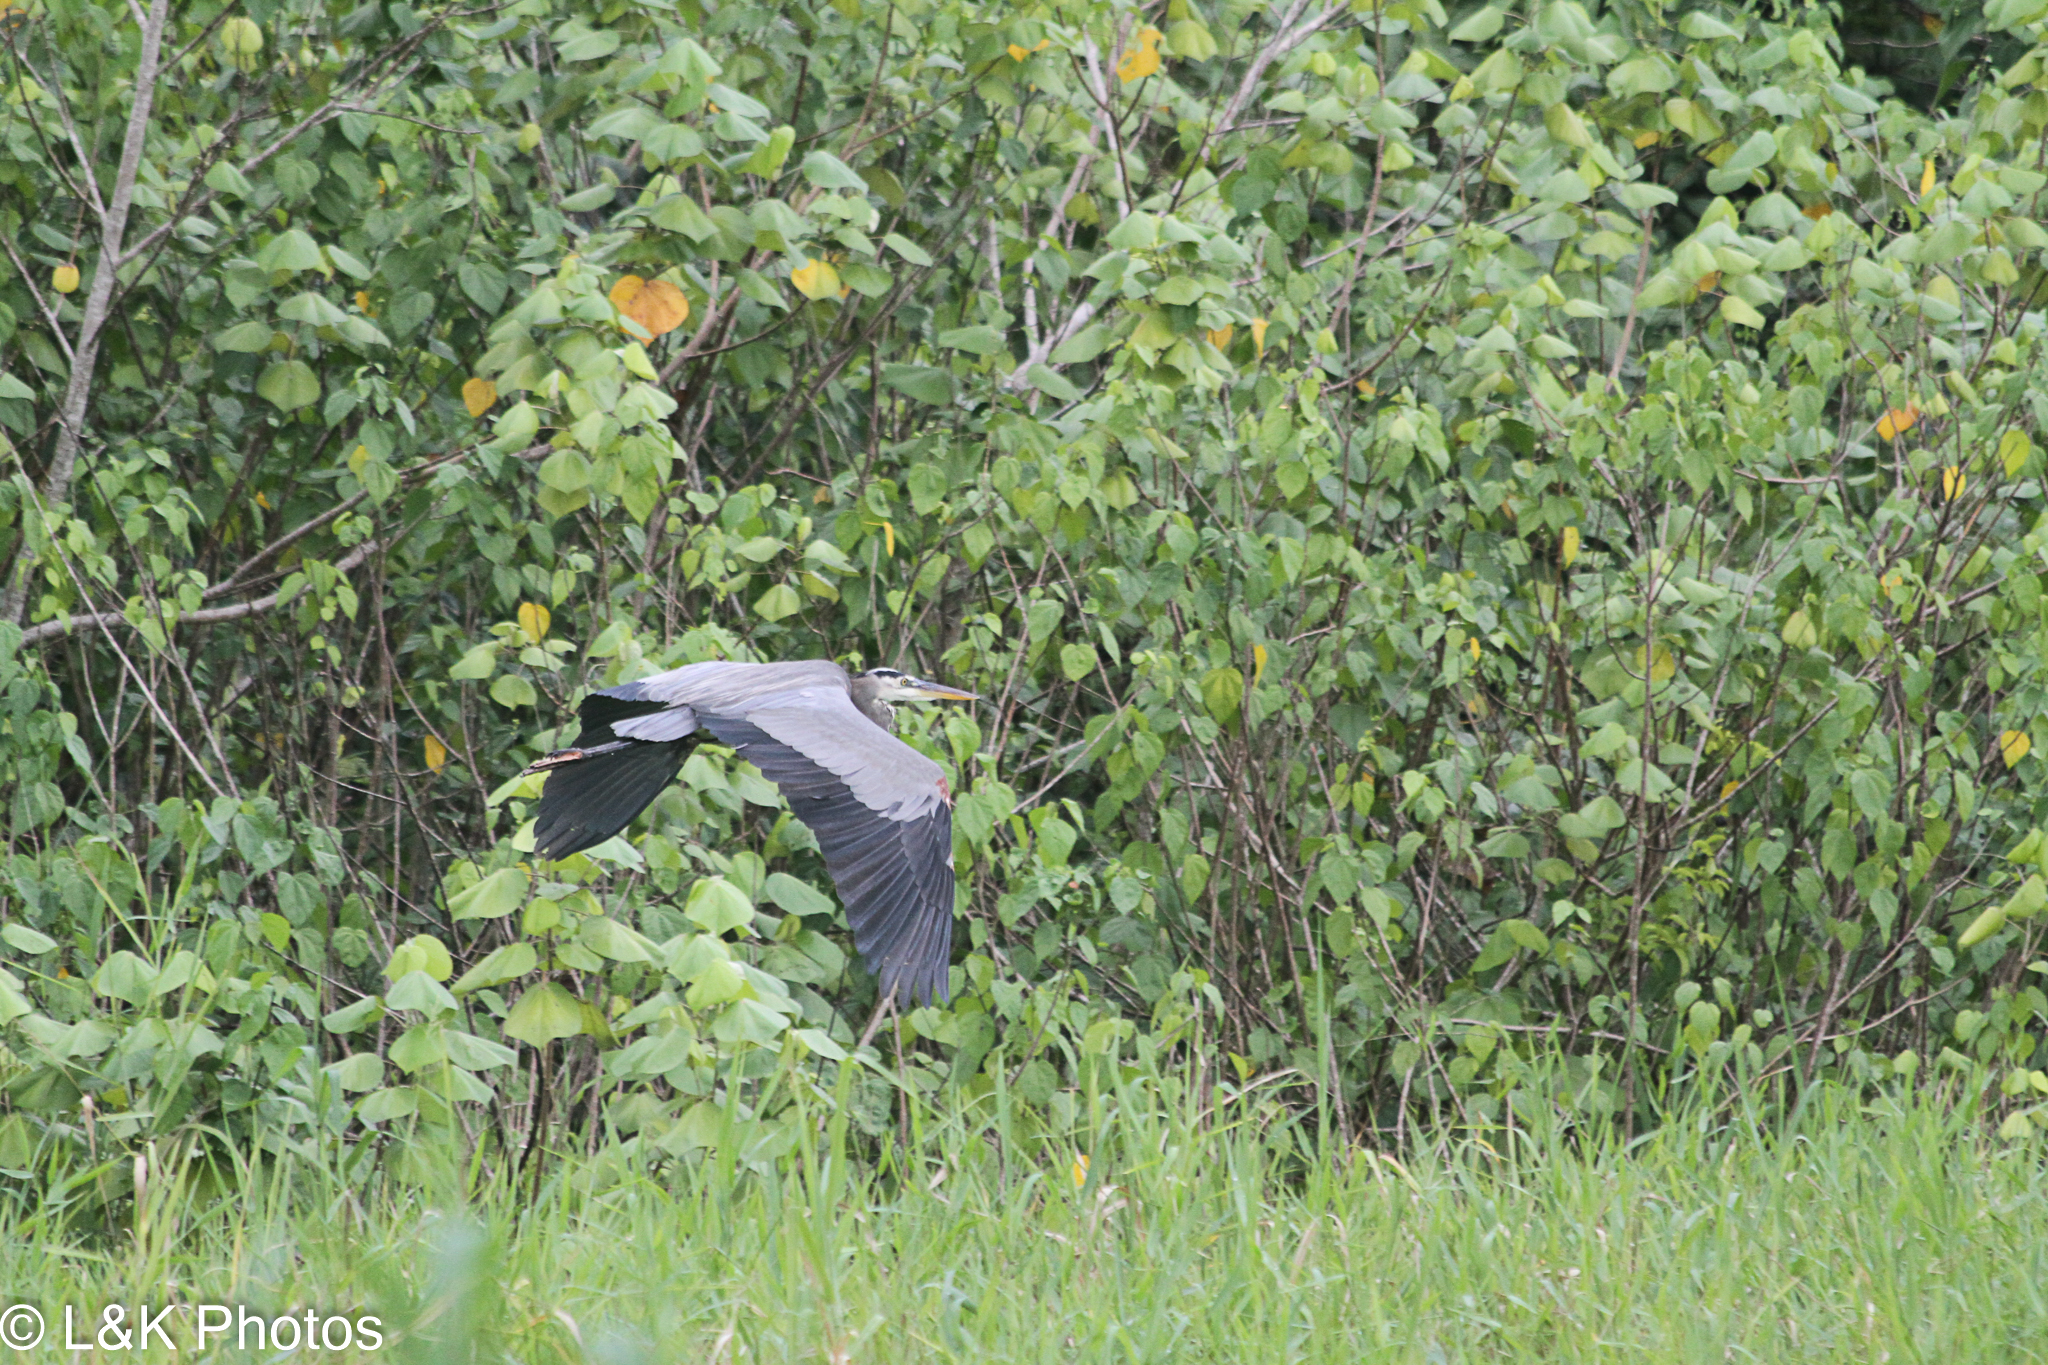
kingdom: Animalia
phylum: Chordata
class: Aves
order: Pelecaniformes
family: Ardeidae
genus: Ardea
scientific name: Ardea herodias
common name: Great blue heron
